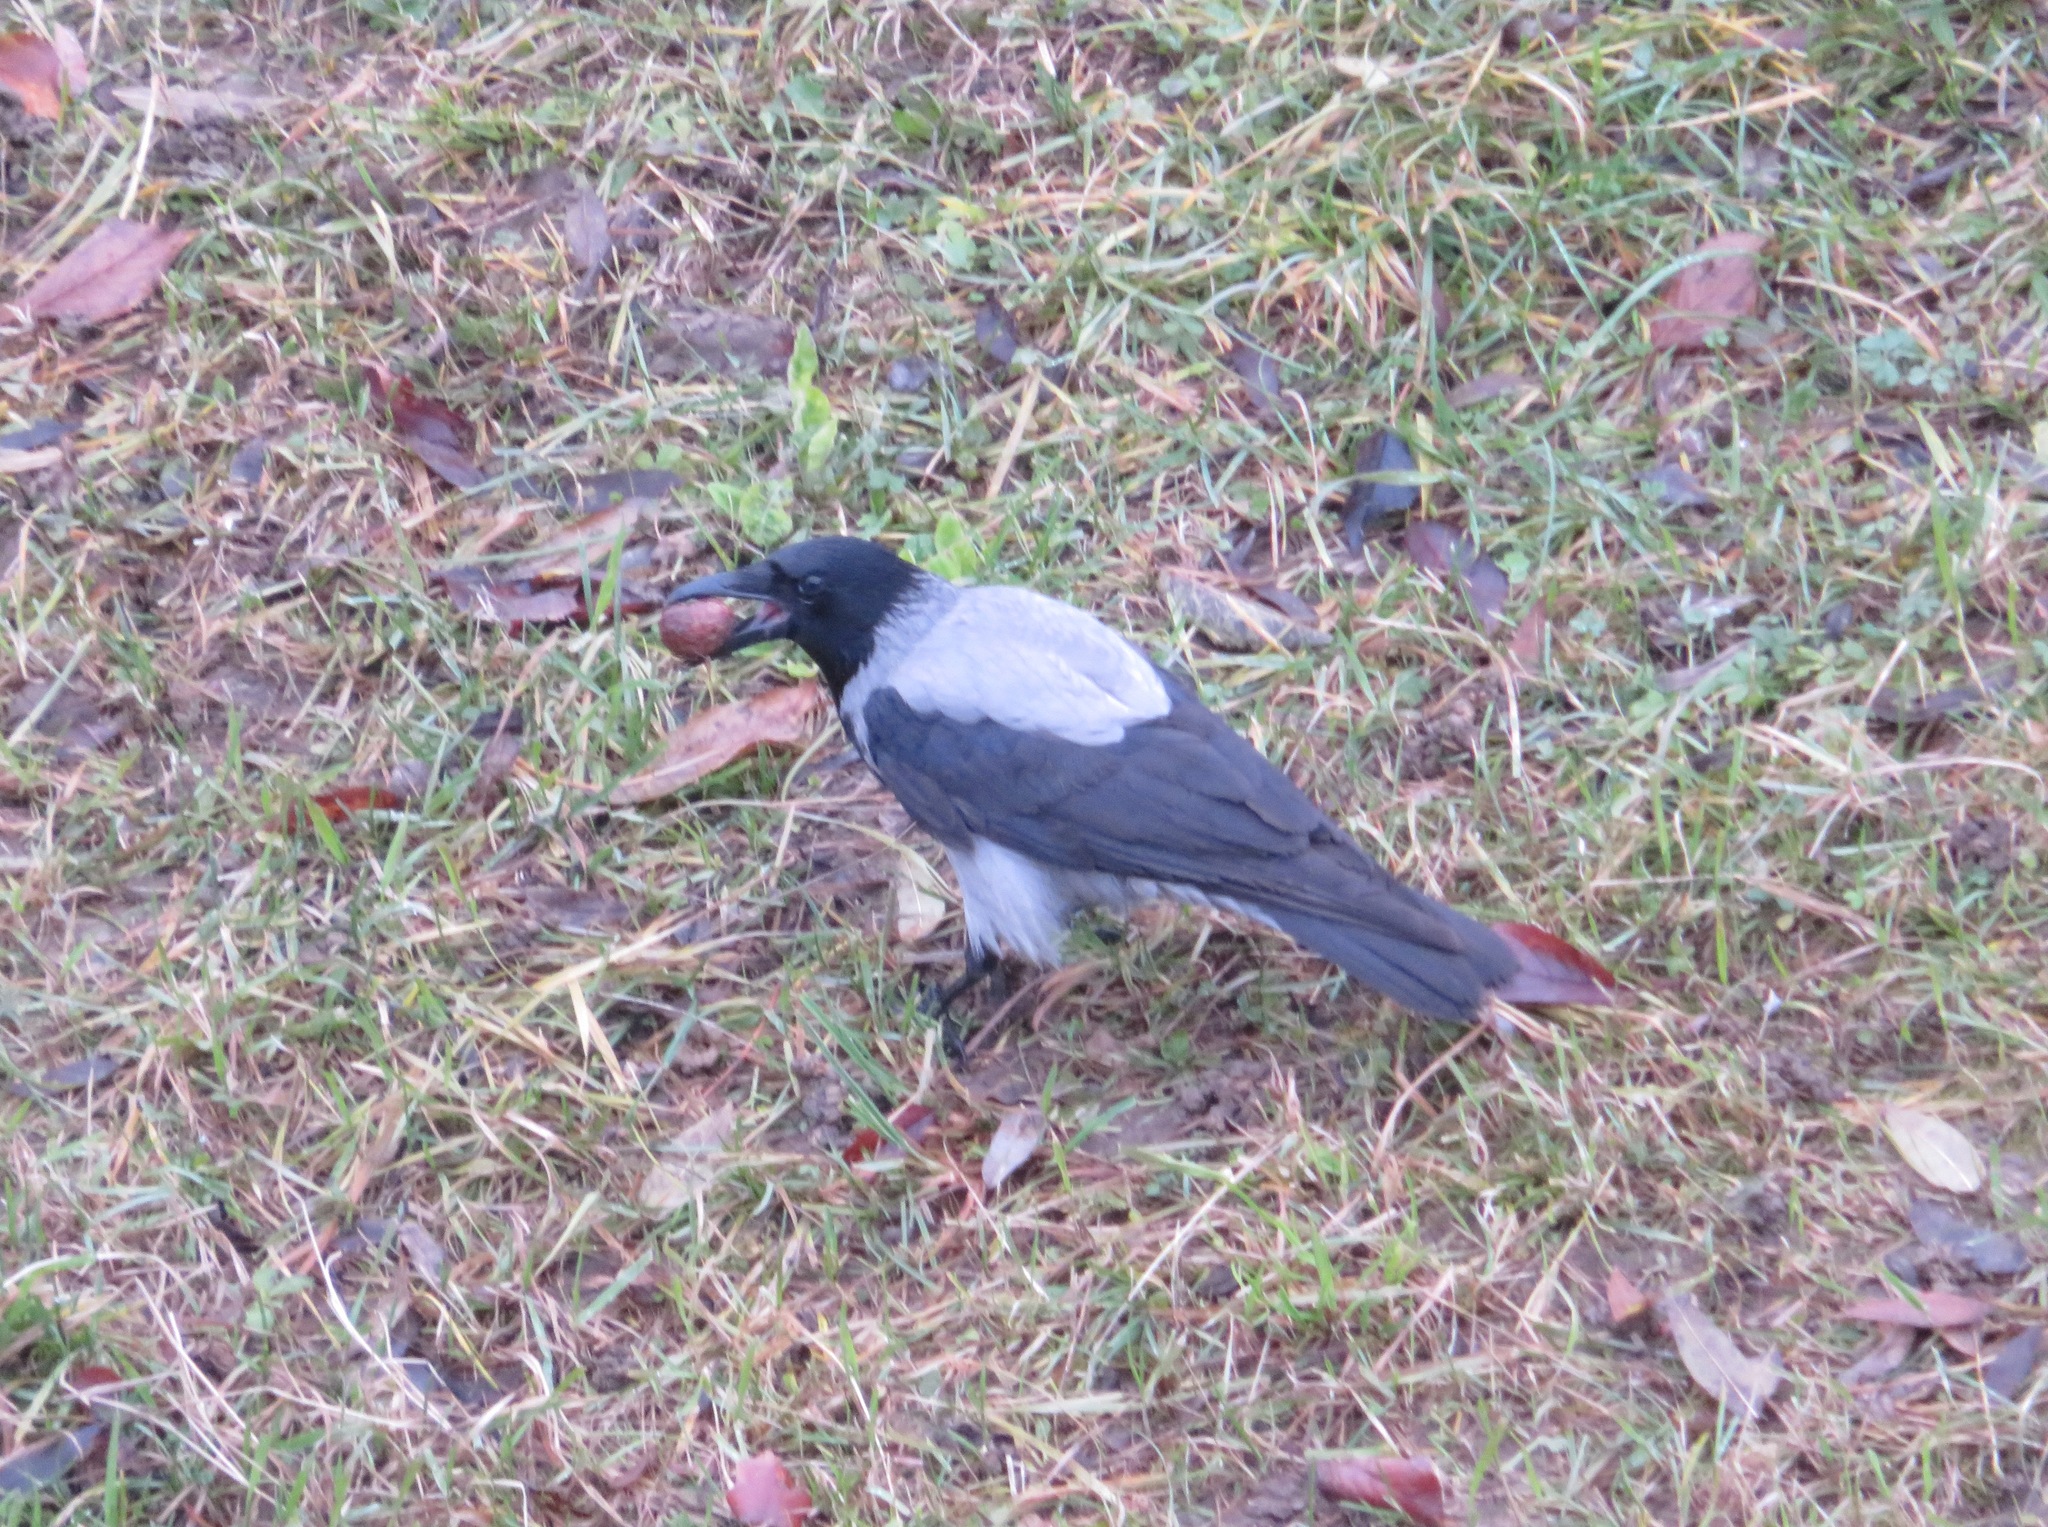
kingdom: Animalia
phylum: Chordata
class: Aves
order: Passeriformes
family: Corvidae
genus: Corvus
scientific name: Corvus cornix
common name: Hooded crow
